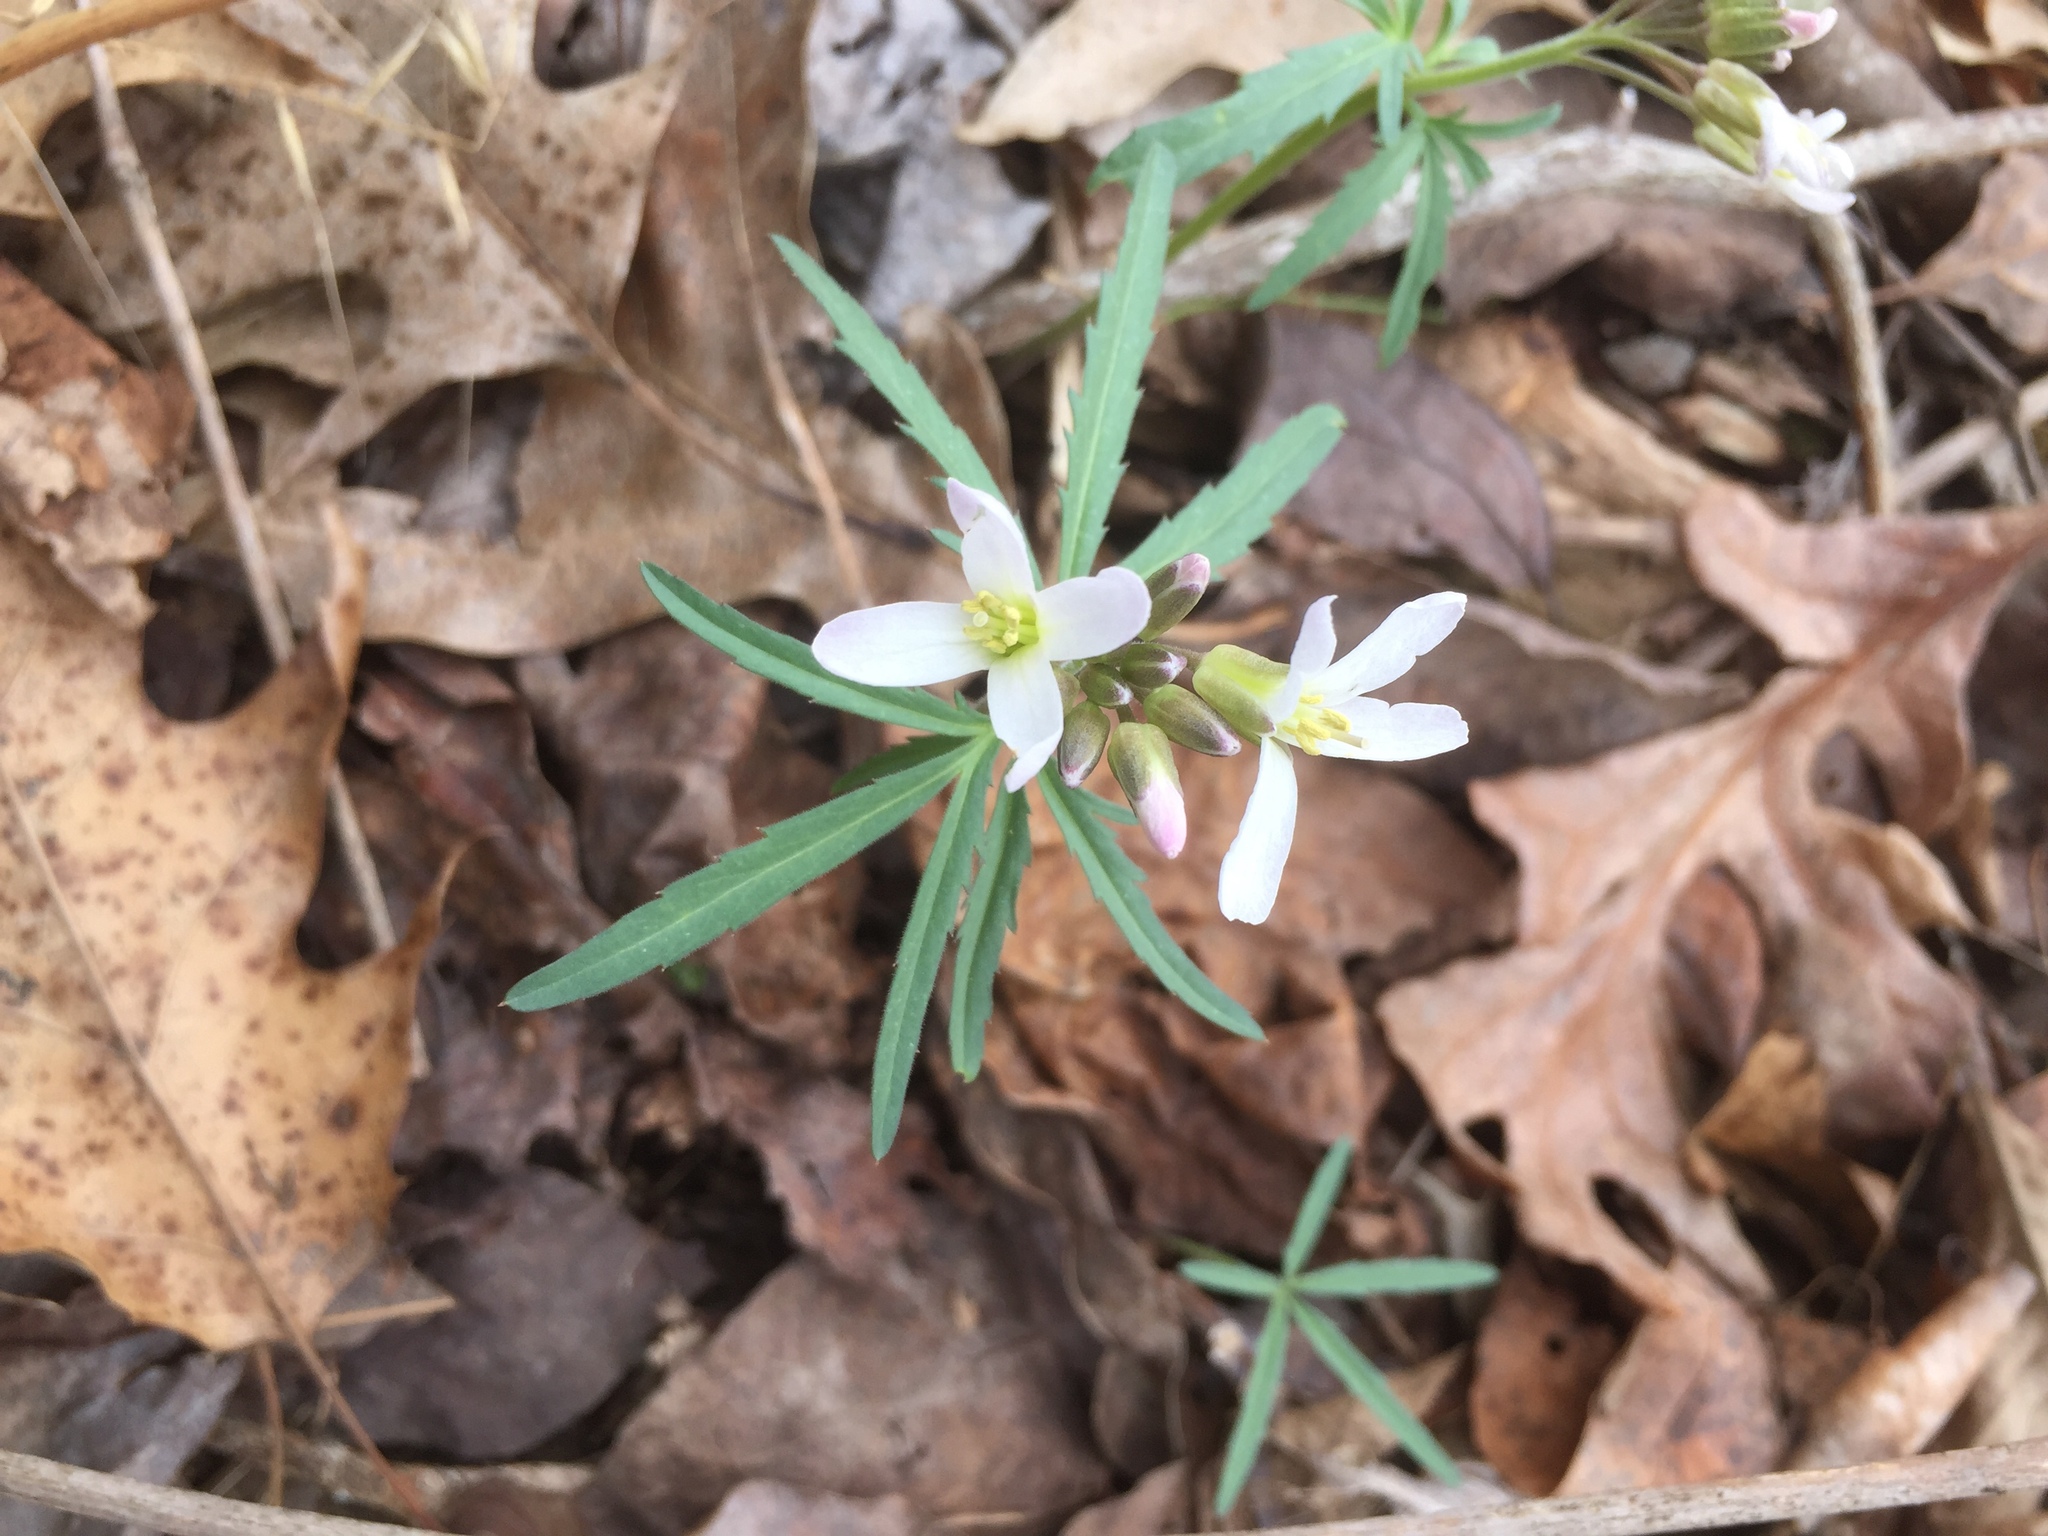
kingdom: Plantae
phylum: Tracheophyta
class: Magnoliopsida
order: Brassicales
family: Brassicaceae
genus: Cardamine
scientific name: Cardamine concatenata
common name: Cut-leaf toothcup
